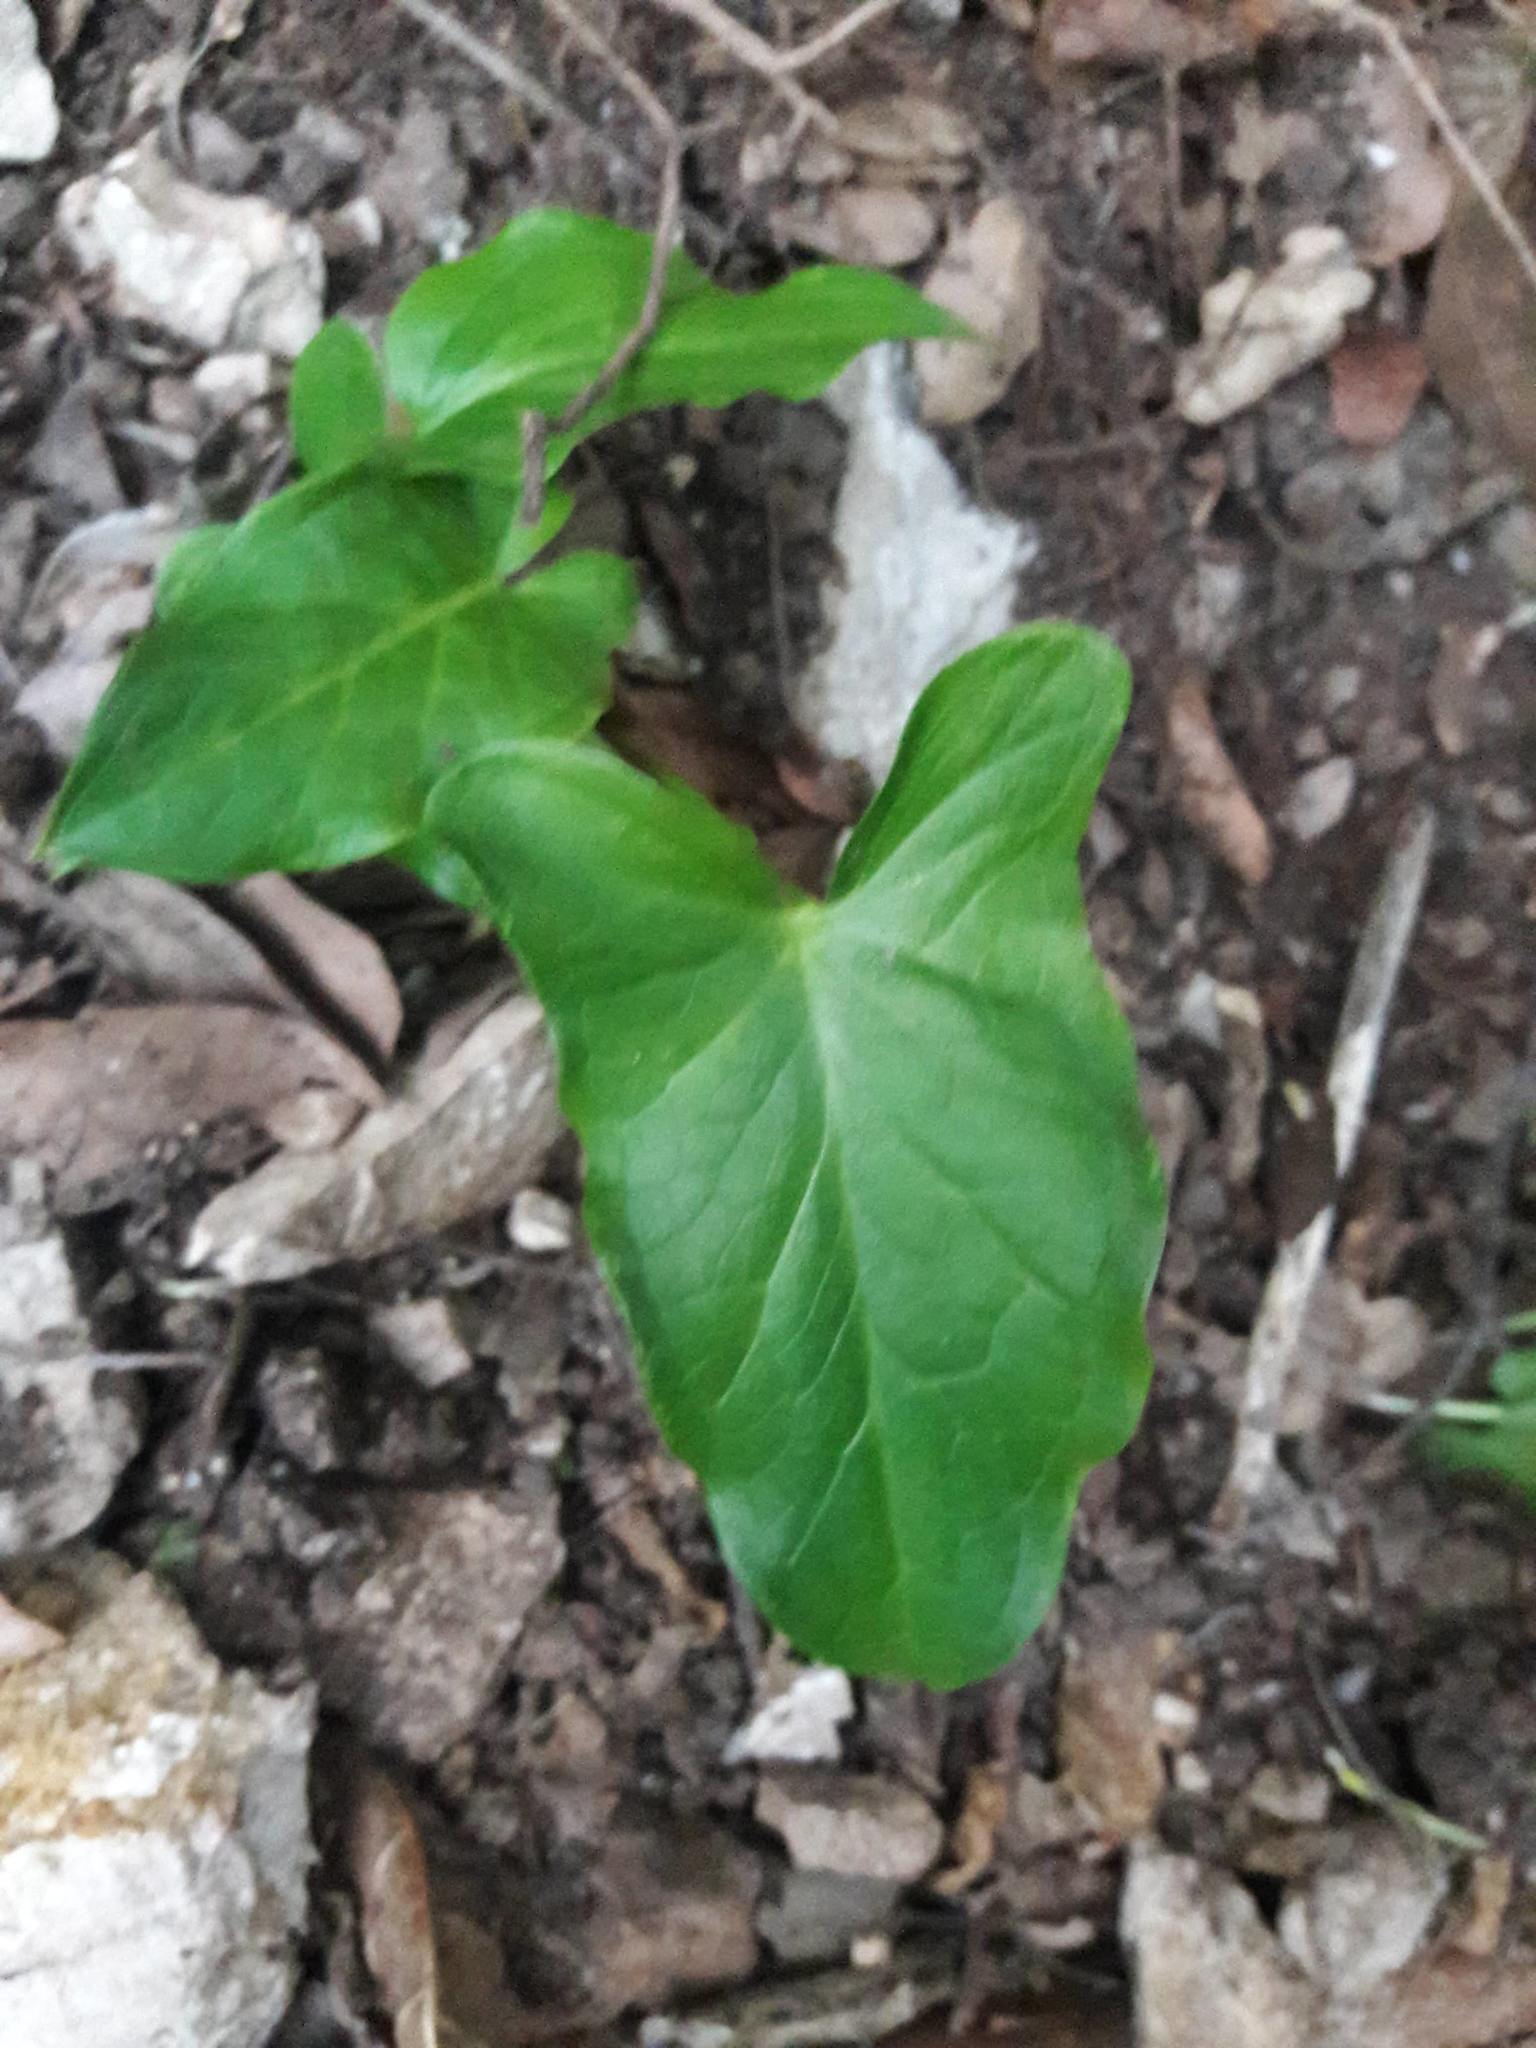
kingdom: Plantae
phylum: Tracheophyta
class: Liliopsida
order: Alismatales
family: Araceae
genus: Arum
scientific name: Arum
